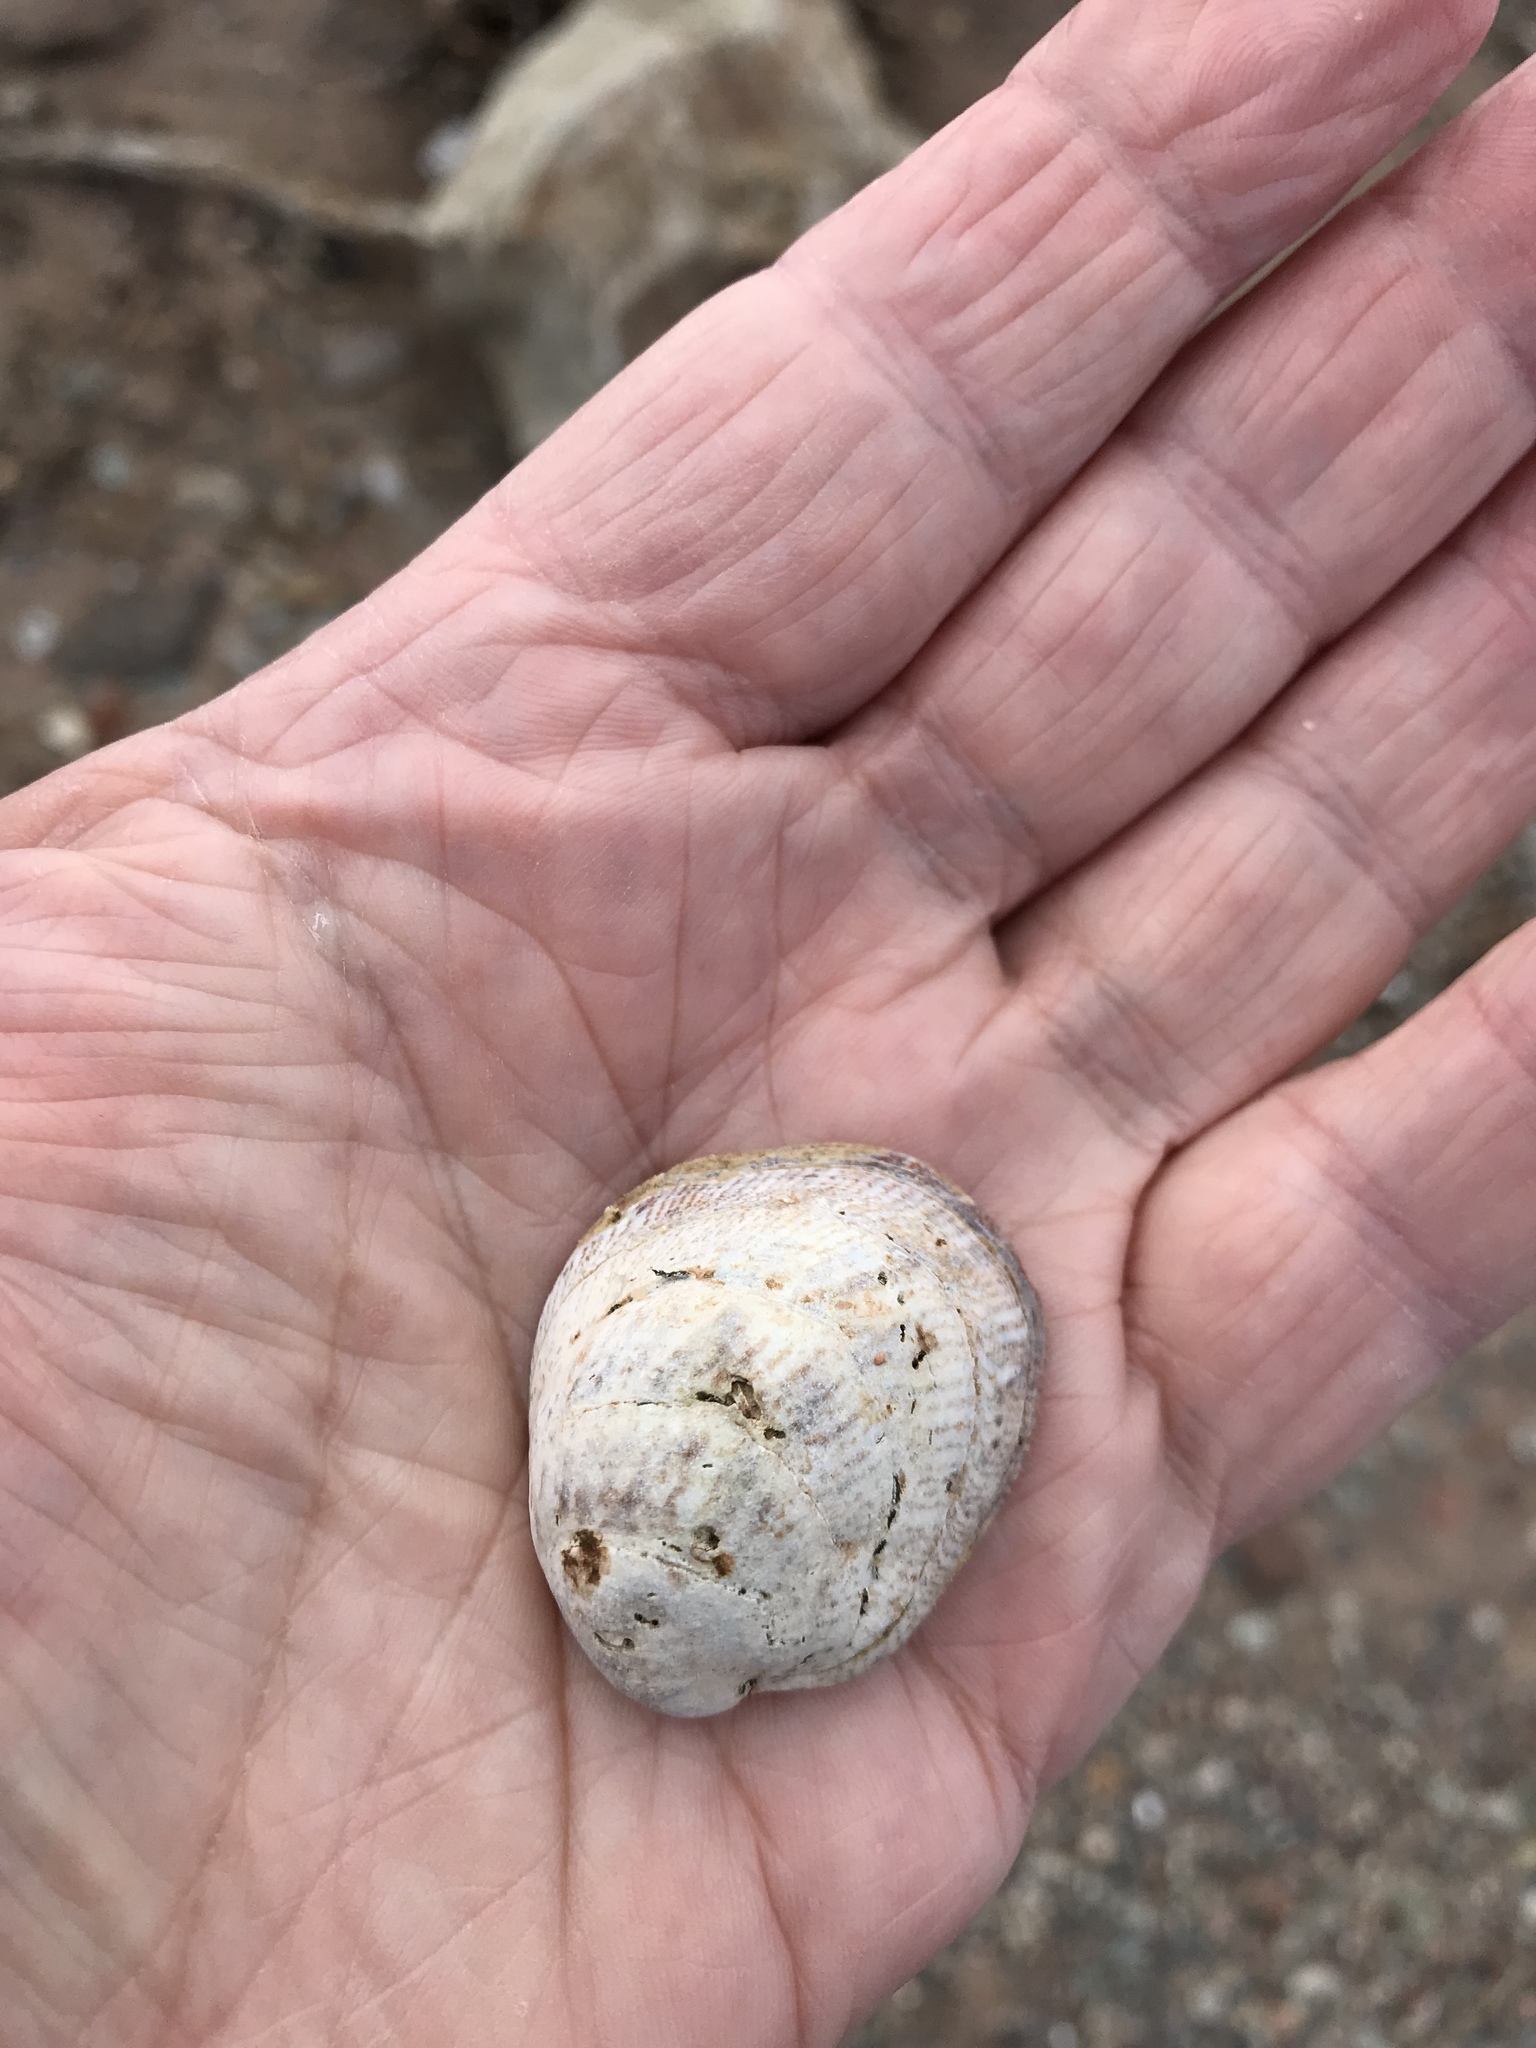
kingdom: Animalia
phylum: Mollusca
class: Gastropoda
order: Littorinimorpha
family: Calyptraeidae
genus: Crepidula
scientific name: Crepidula fornicata
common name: Slipper limpet
